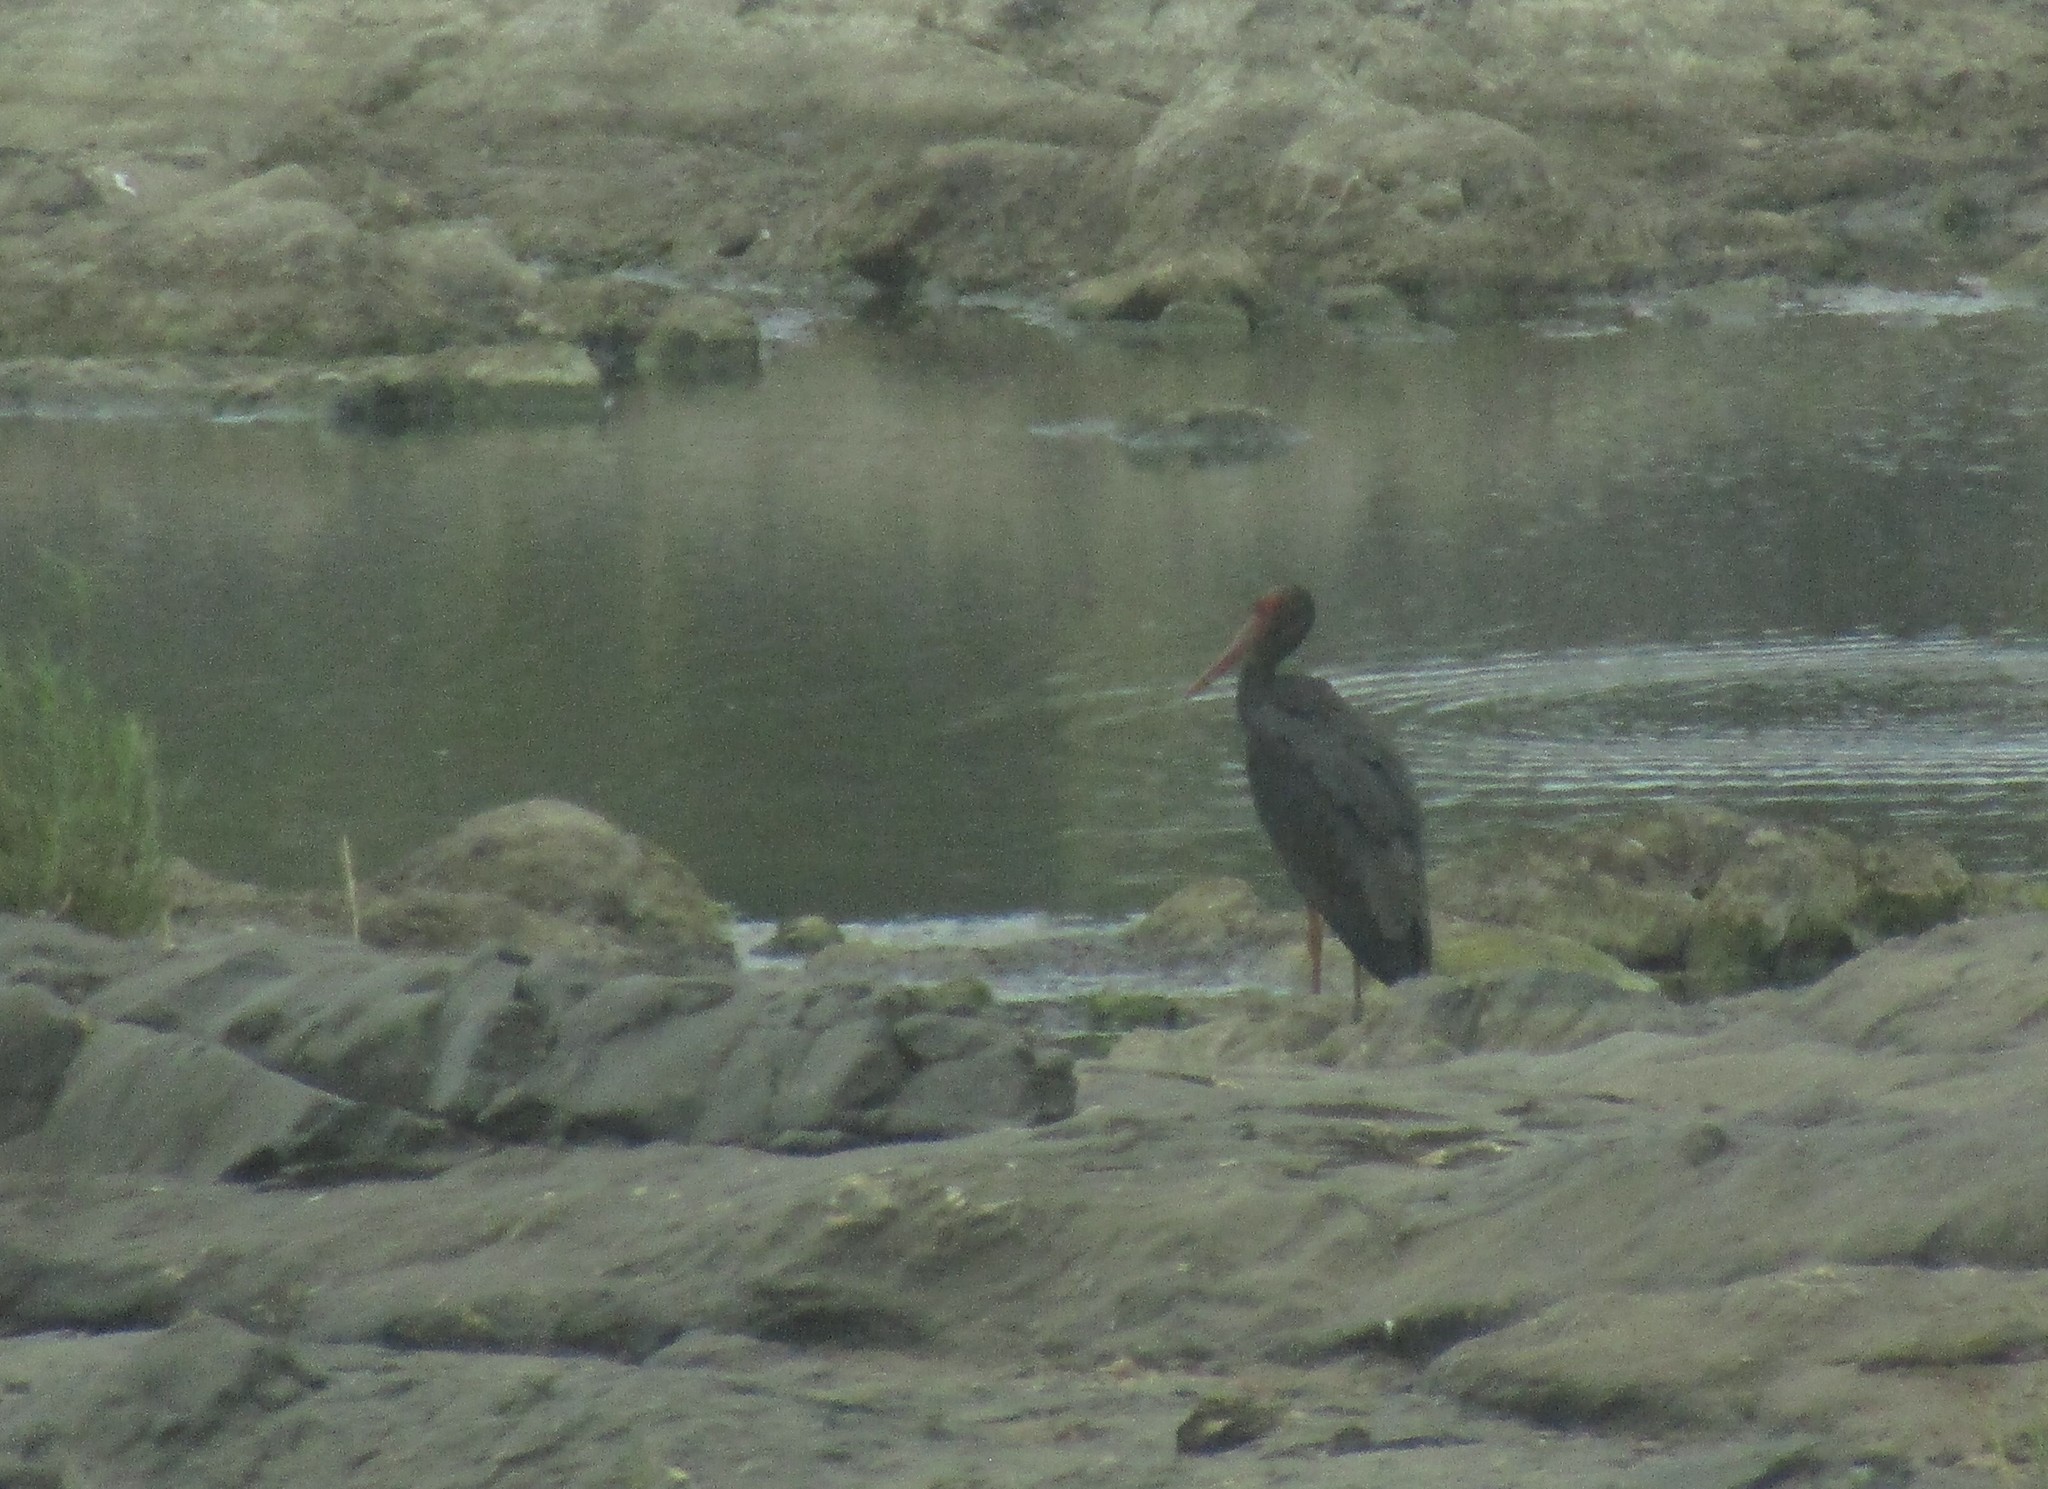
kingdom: Animalia
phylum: Chordata
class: Aves
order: Ciconiiformes
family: Ciconiidae
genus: Ciconia
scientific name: Ciconia nigra
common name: Black stork
